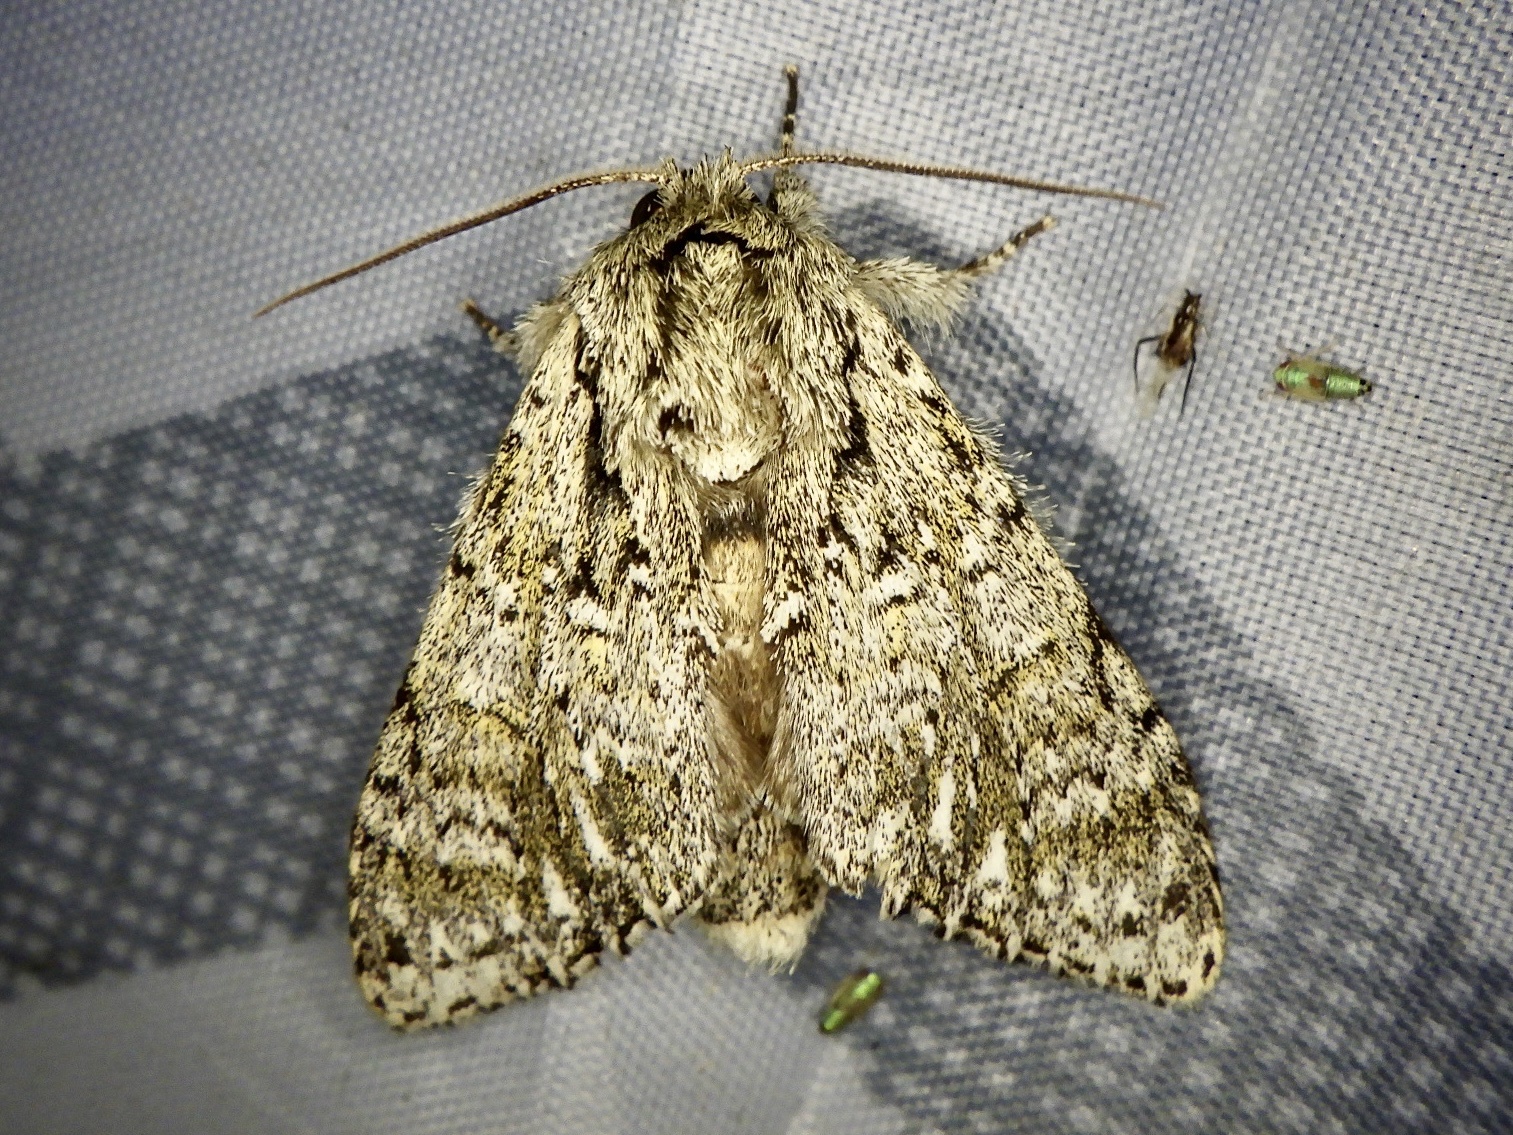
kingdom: Animalia
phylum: Arthropoda
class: Insecta
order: Lepidoptera
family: Notodontidae
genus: Pheosiopsis
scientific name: Pheosiopsis cinerea
